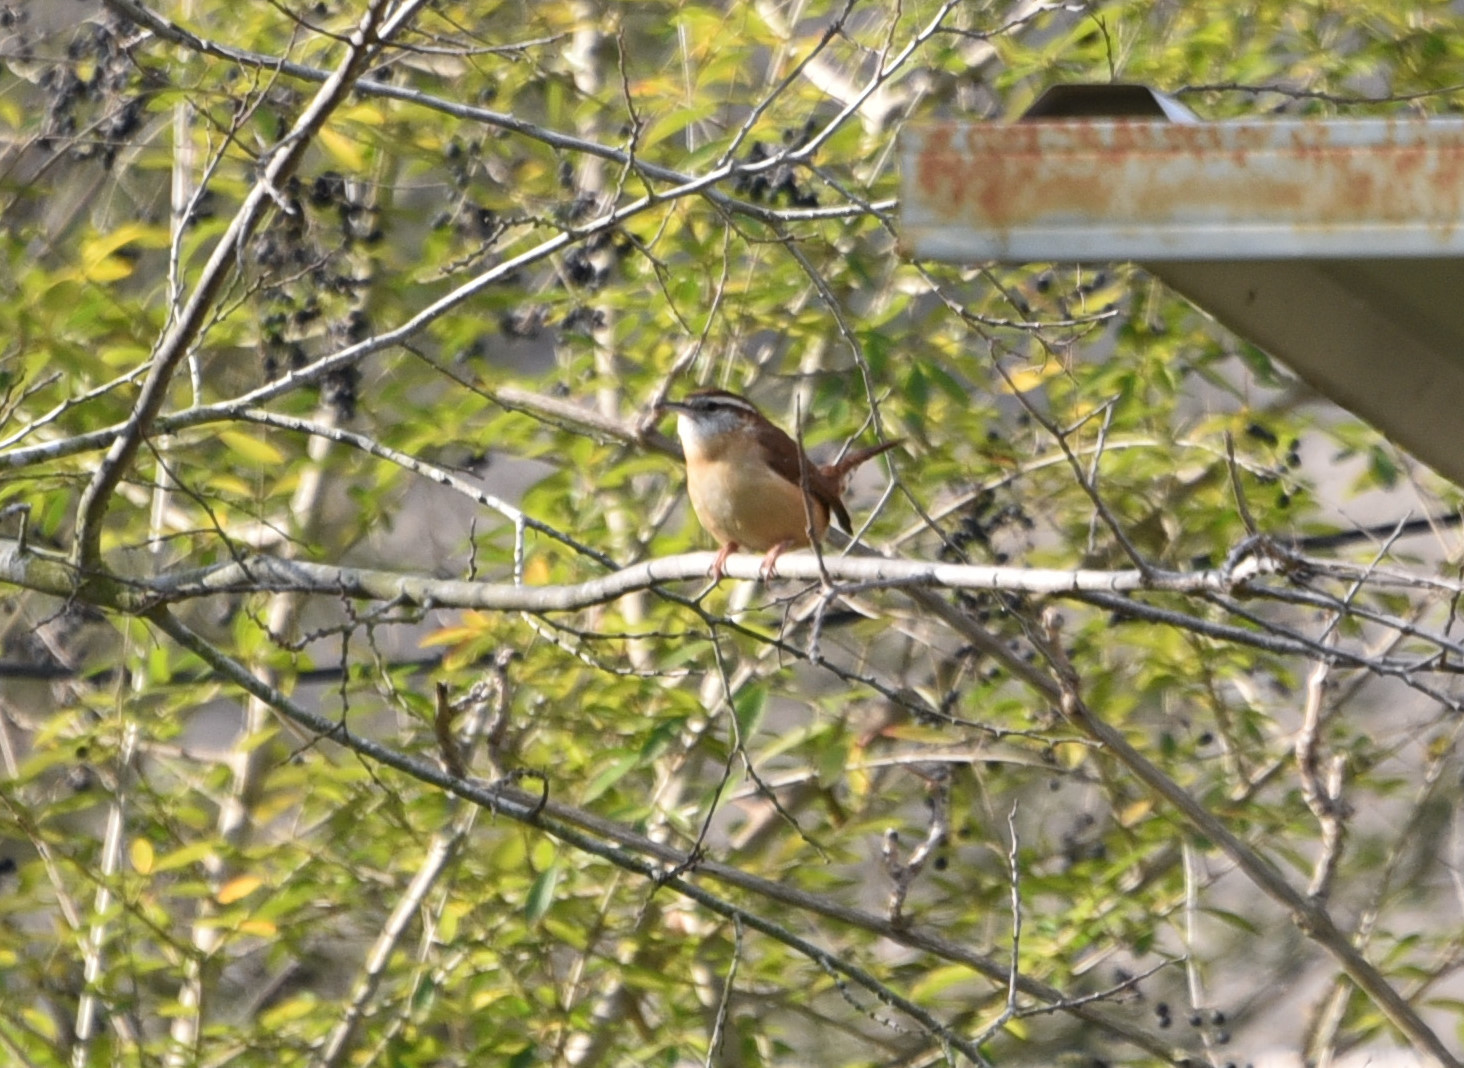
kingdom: Animalia
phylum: Chordata
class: Aves
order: Passeriformes
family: Troglodytidae
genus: Thryothorus
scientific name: Thryothorus ludovicianus
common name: Carolina wren
